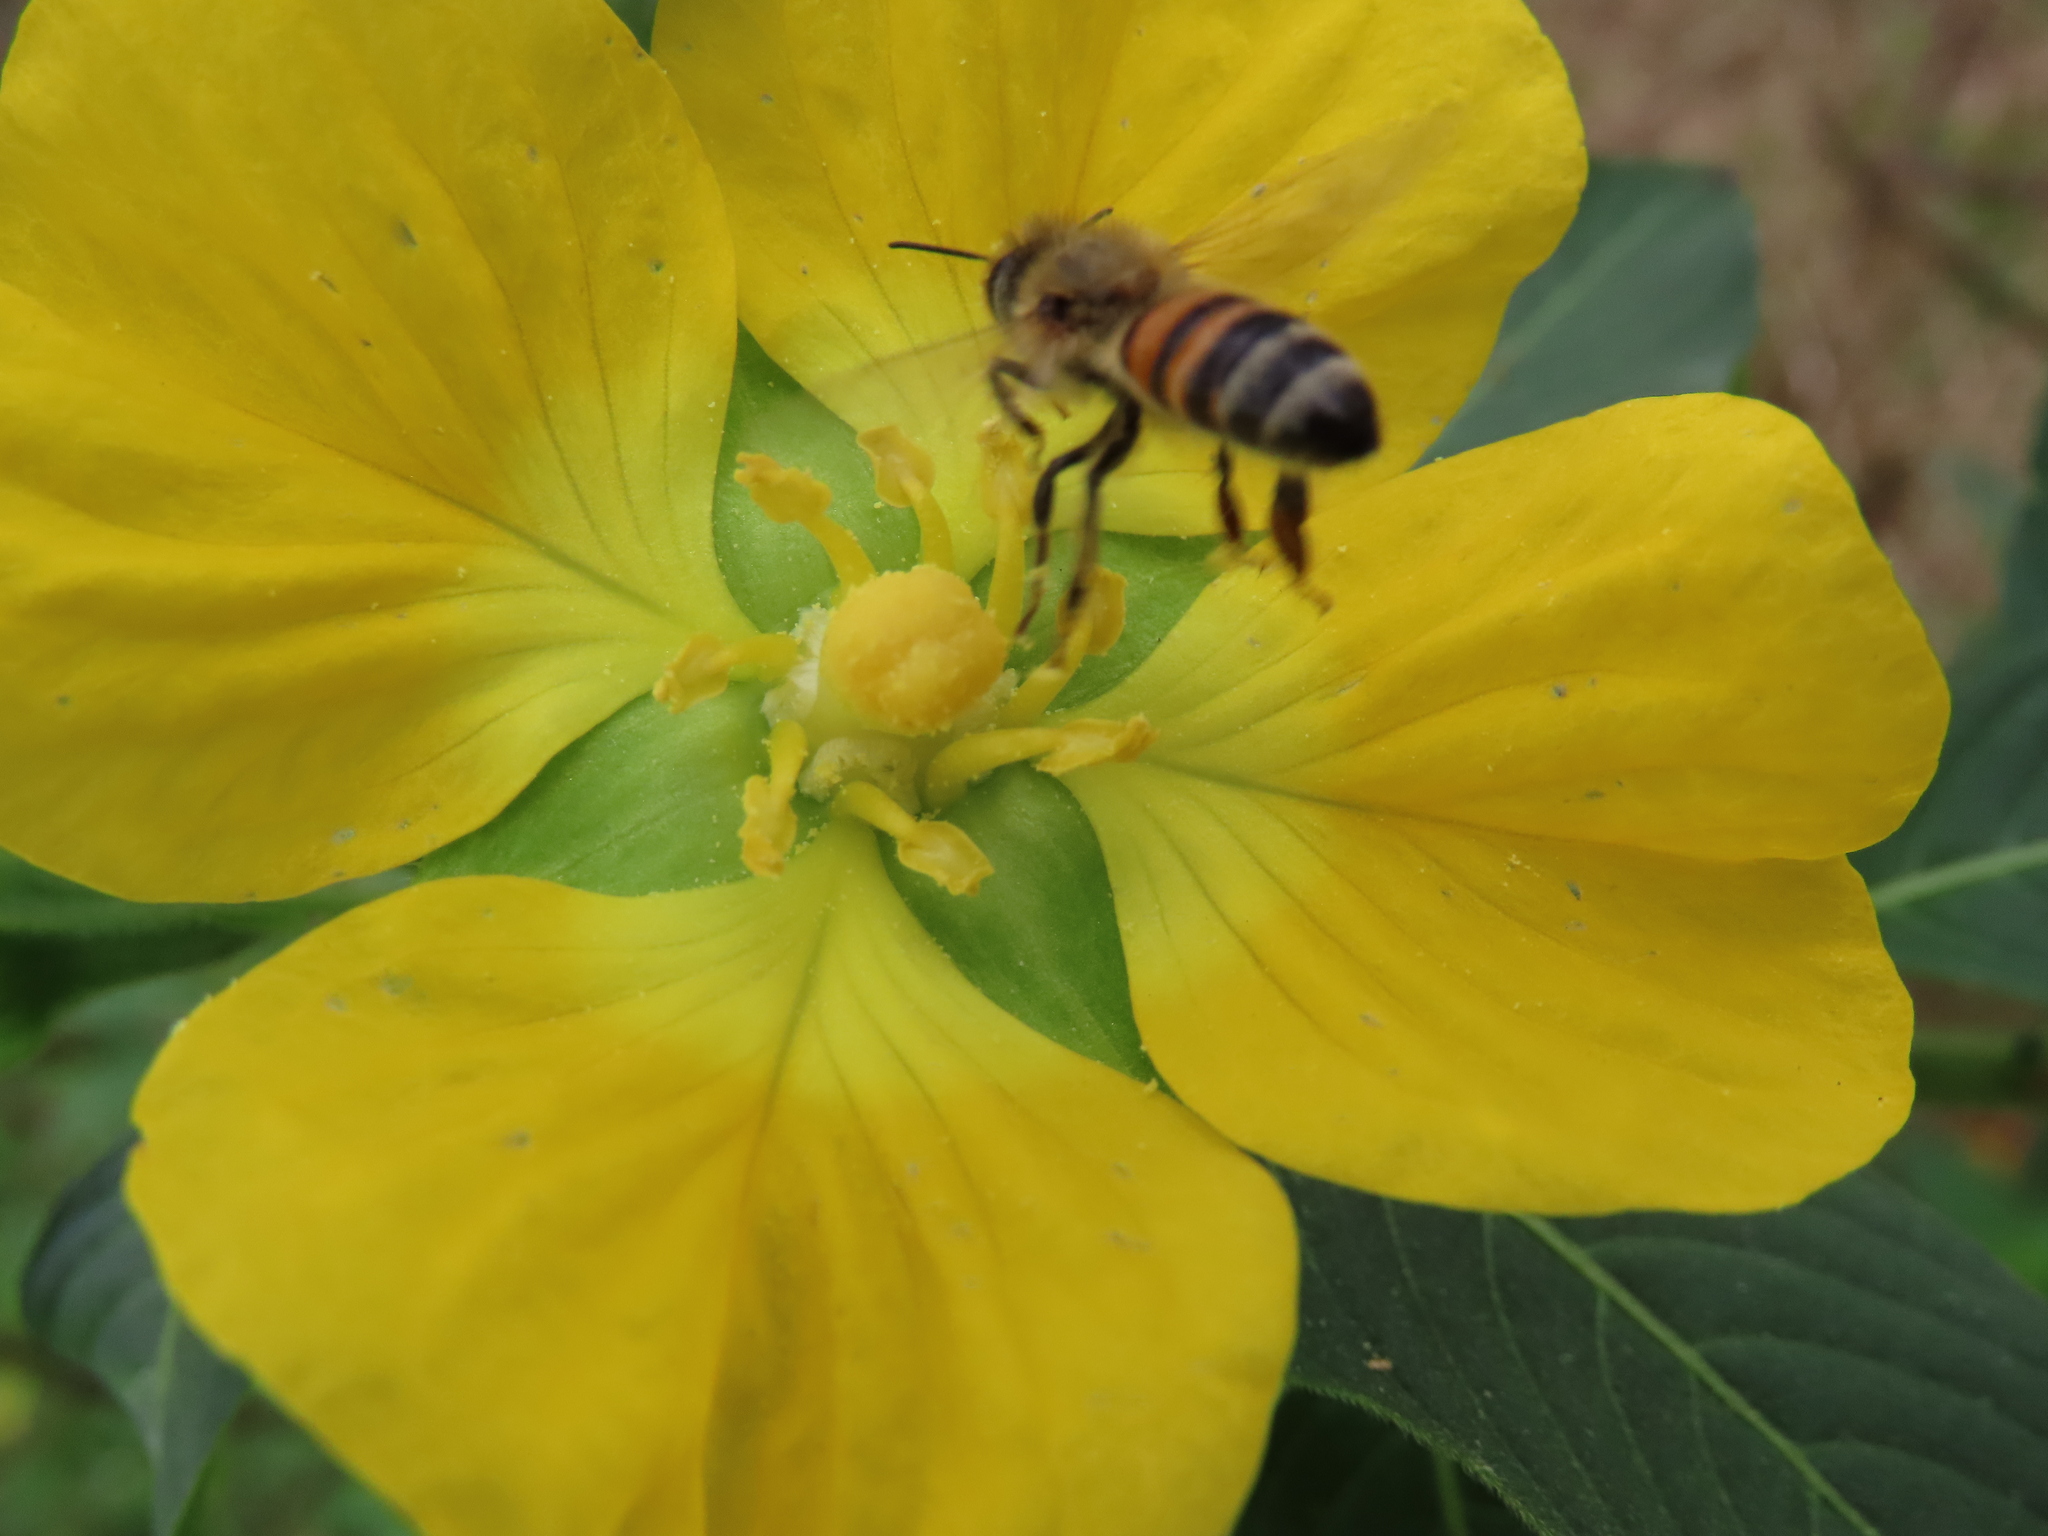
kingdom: Animalia
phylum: Arthropoda
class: Insecta
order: Hymenoptera
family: Apidae
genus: Apis
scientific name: Apis mellifera
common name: Honey bee
